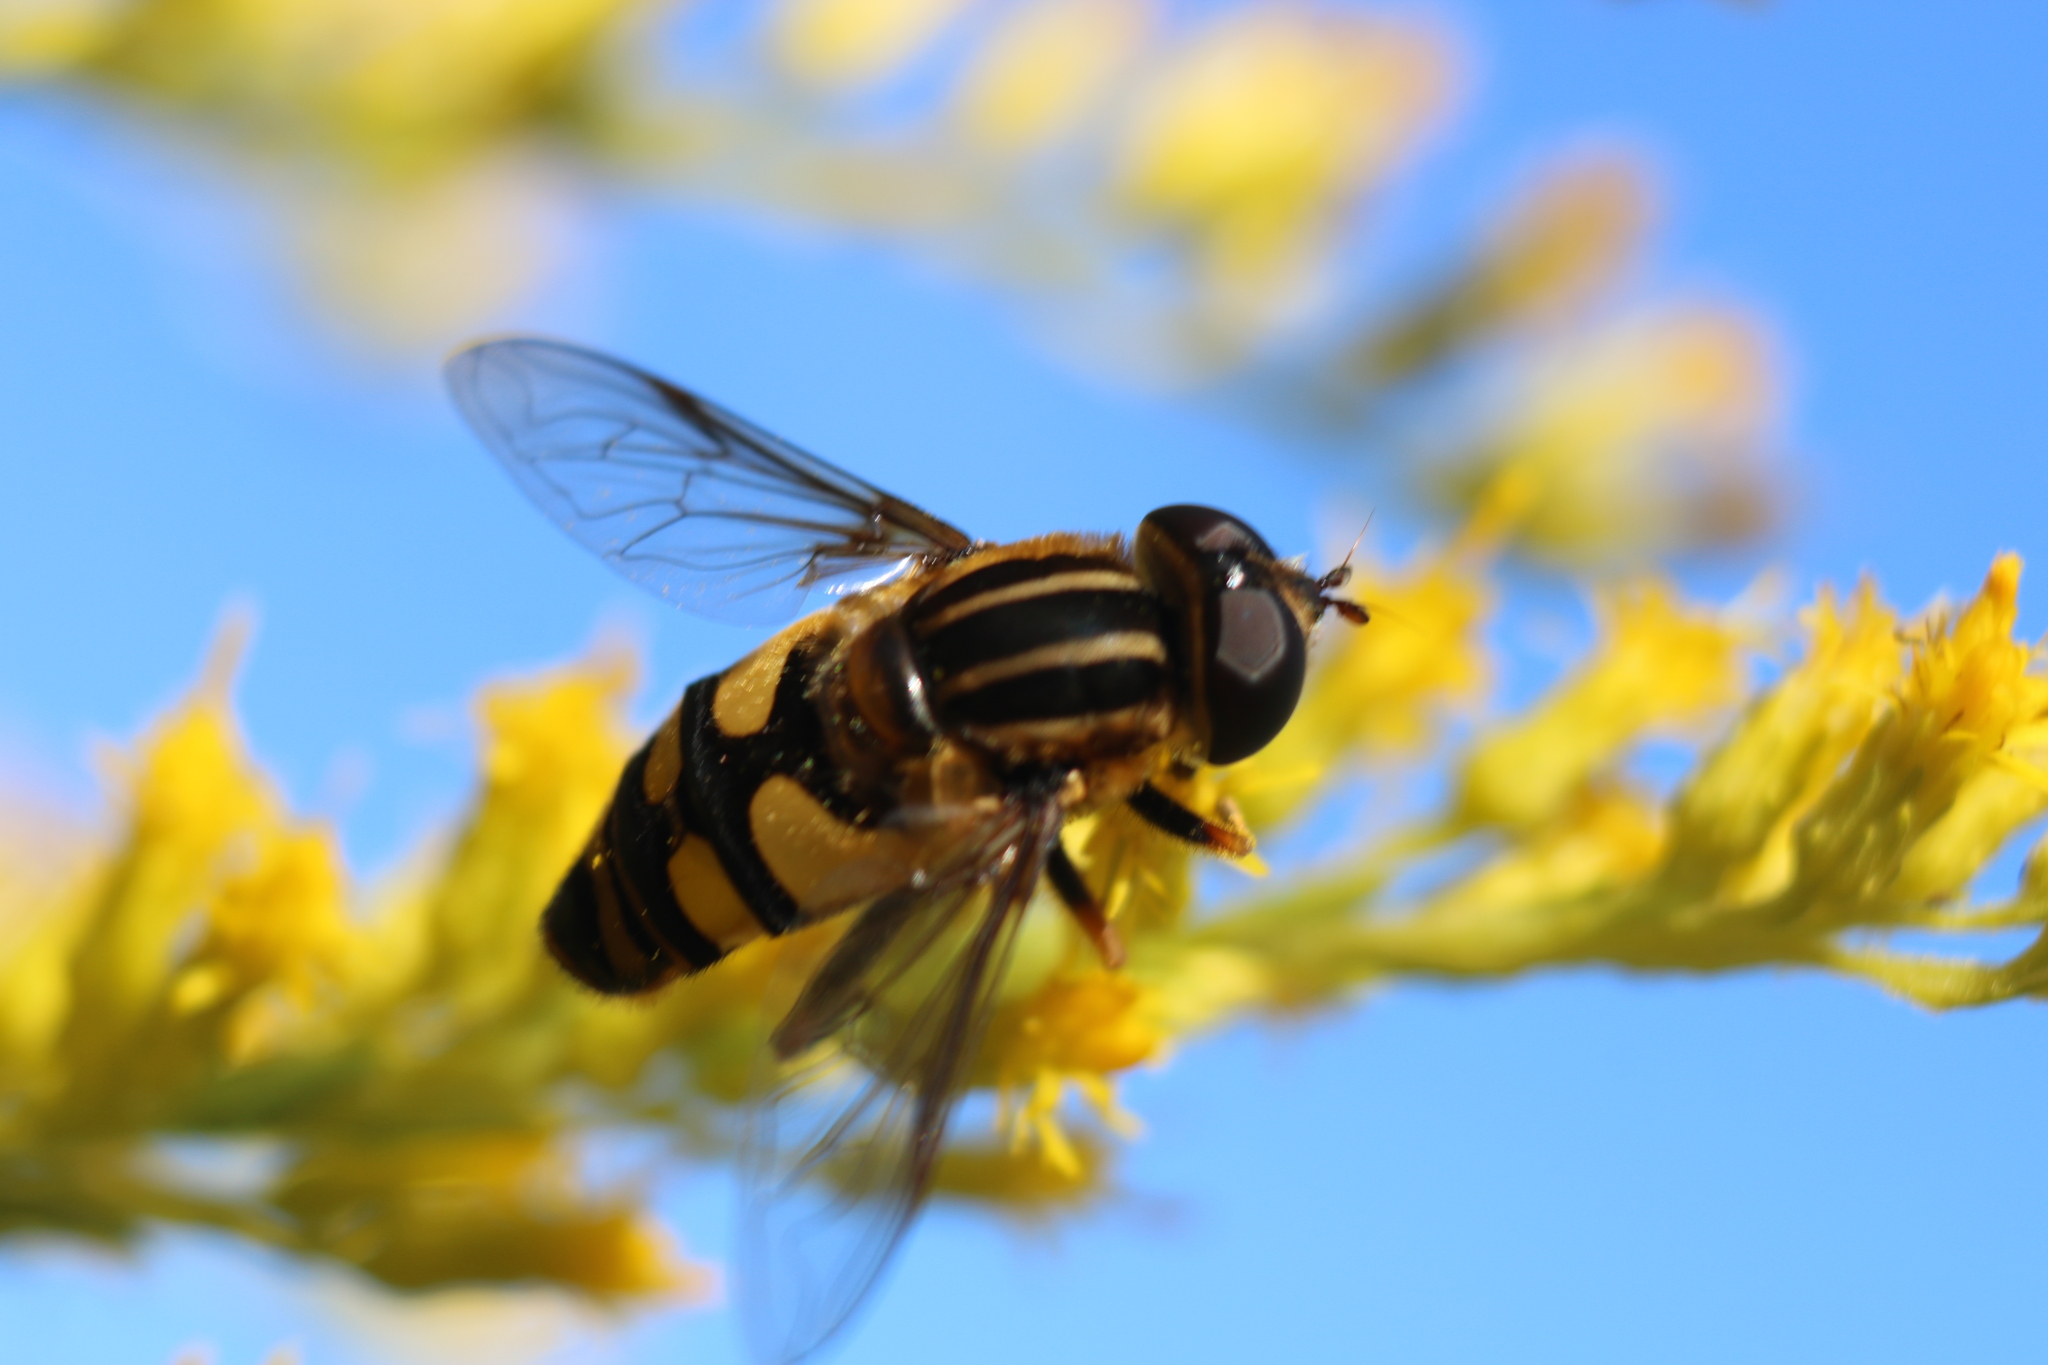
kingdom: Animalia
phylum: Arthropoda
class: Insecta
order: Diptera
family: Syrphidae
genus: Helophilus
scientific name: Helophilus fasciatus
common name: Narrow-headed marsh fly
